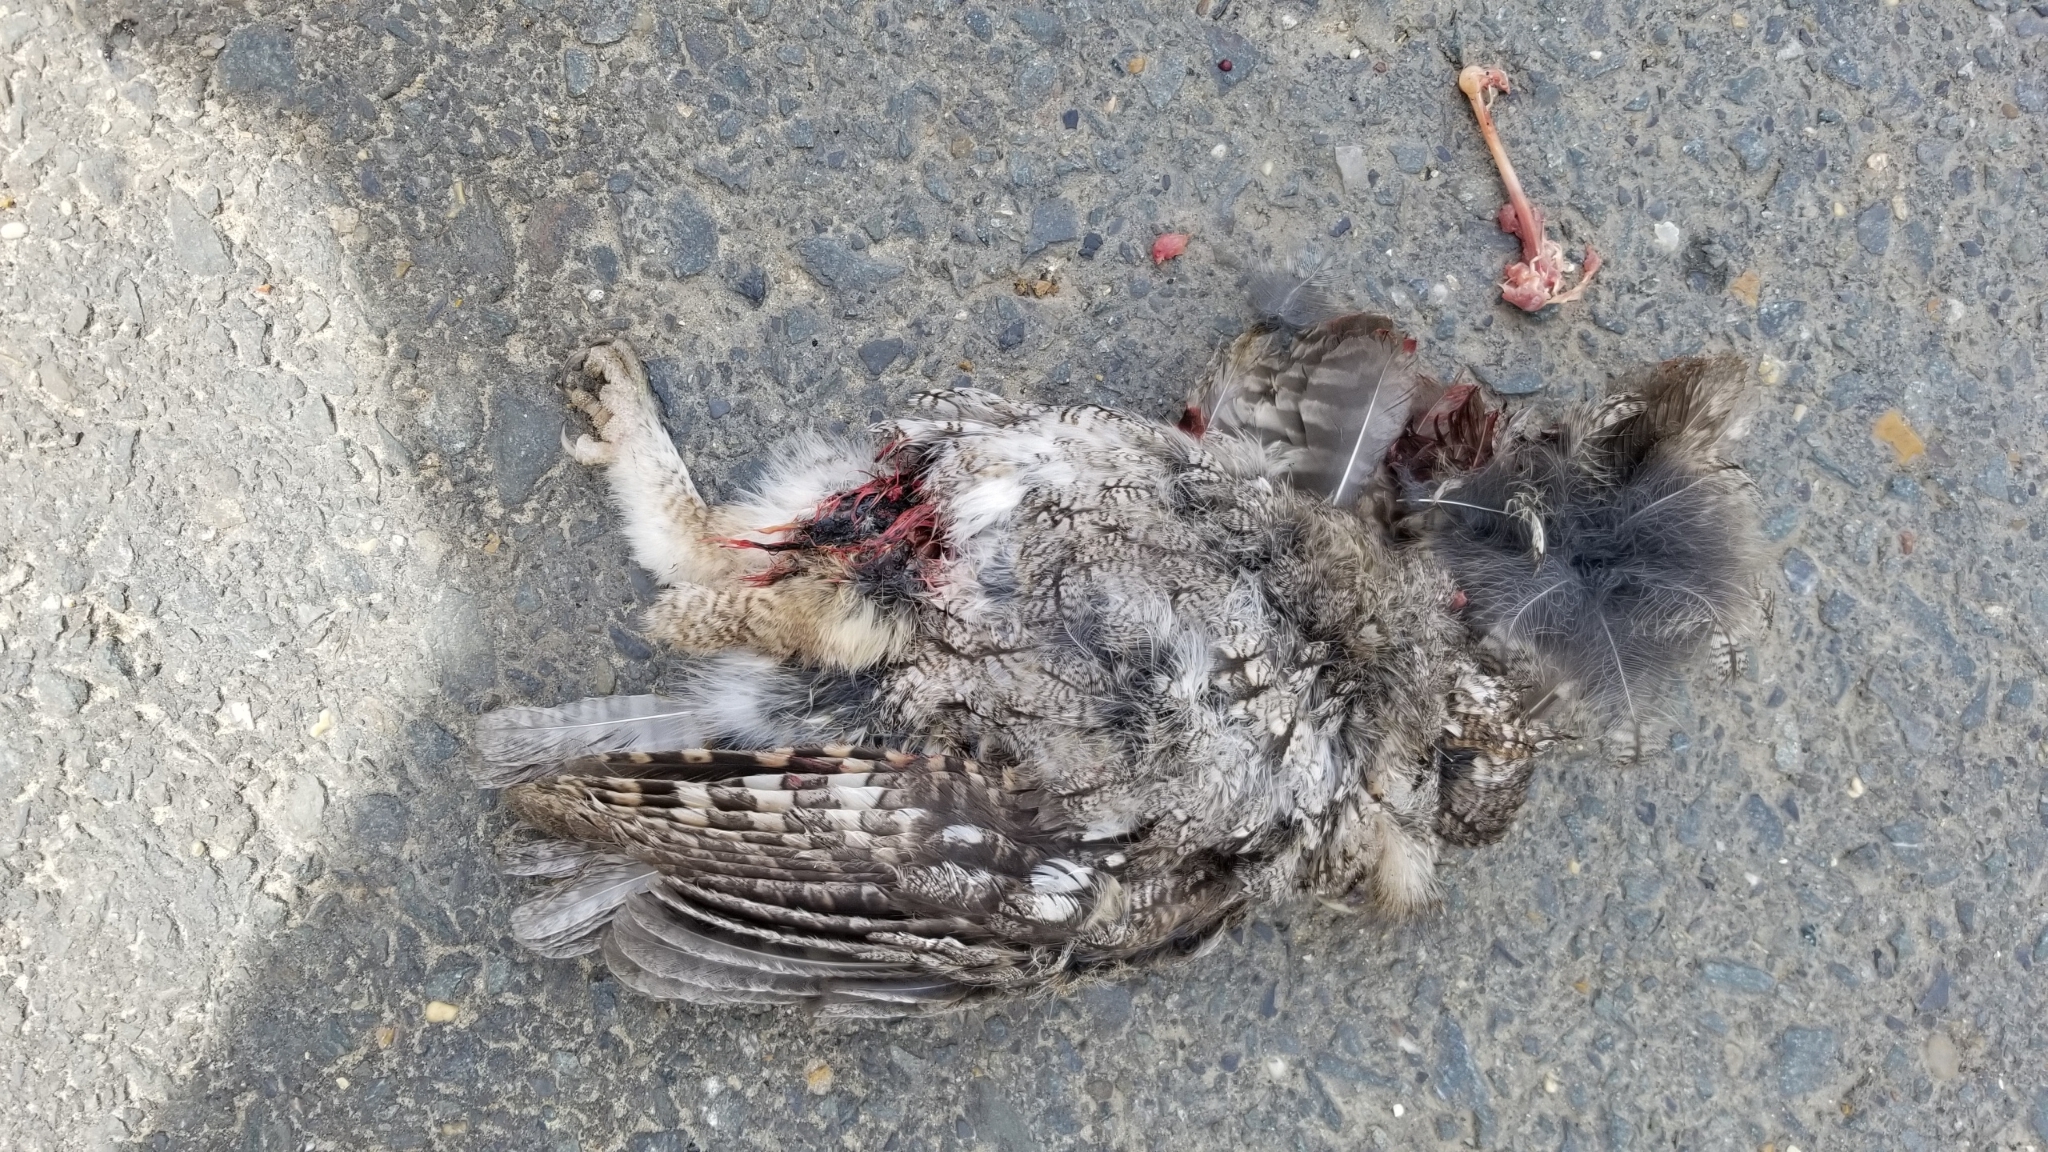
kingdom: Animalia
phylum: Chordata
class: Aves
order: Strigiformes
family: Strigidae
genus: Megascops
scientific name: Megascops asio
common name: Eastern screech-owl
